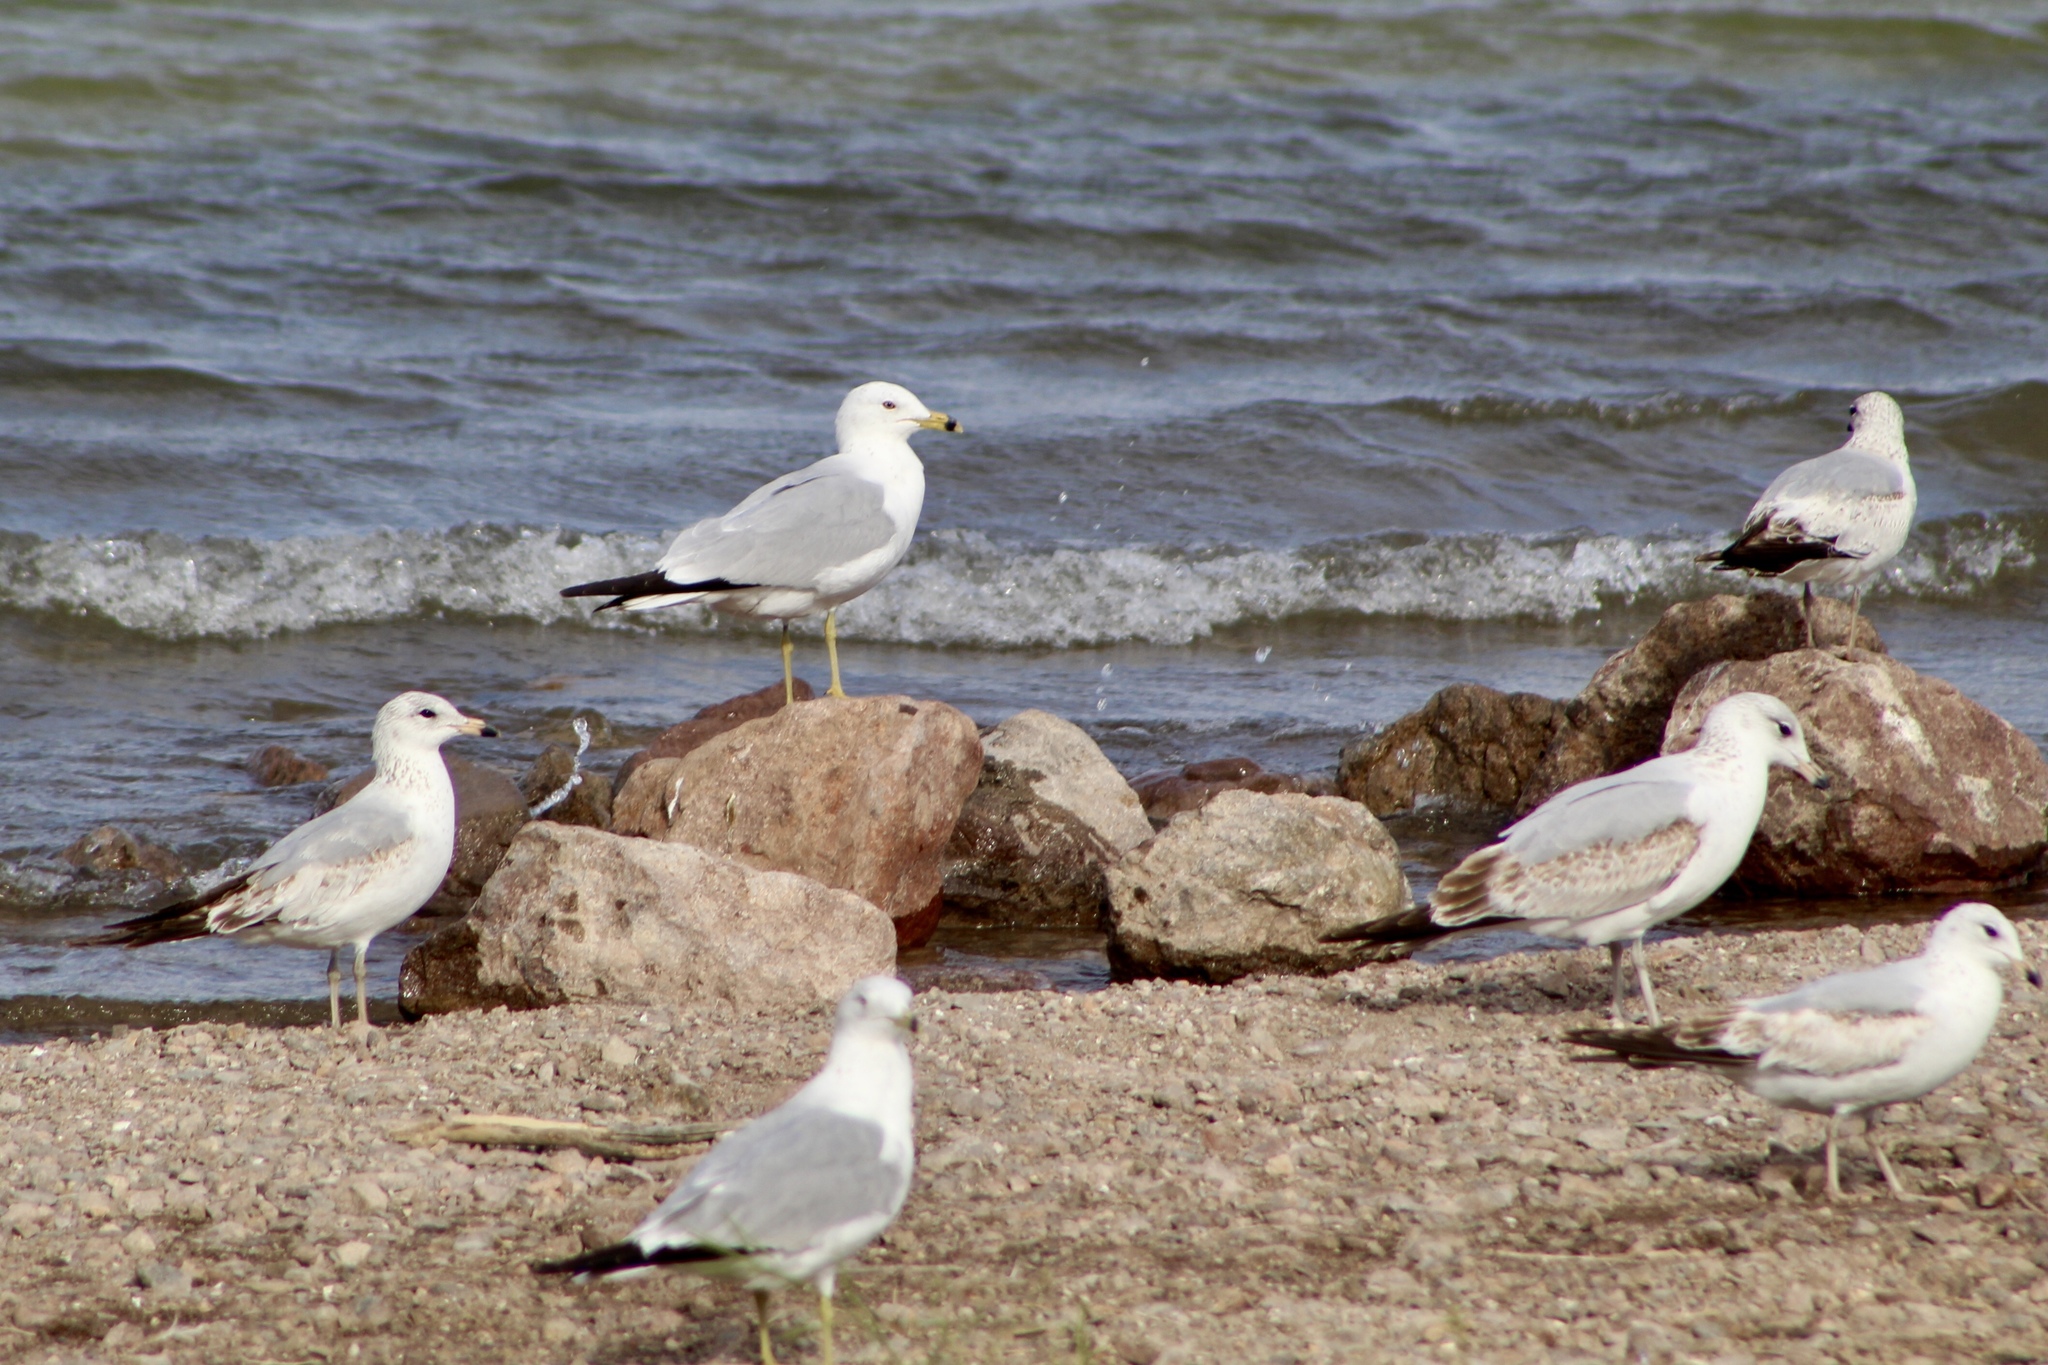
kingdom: Animalia
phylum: Chordata
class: Aves
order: Charadriiformes
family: Laridae
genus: Larus
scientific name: Larus delawarensis
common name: Ring-billed gull
